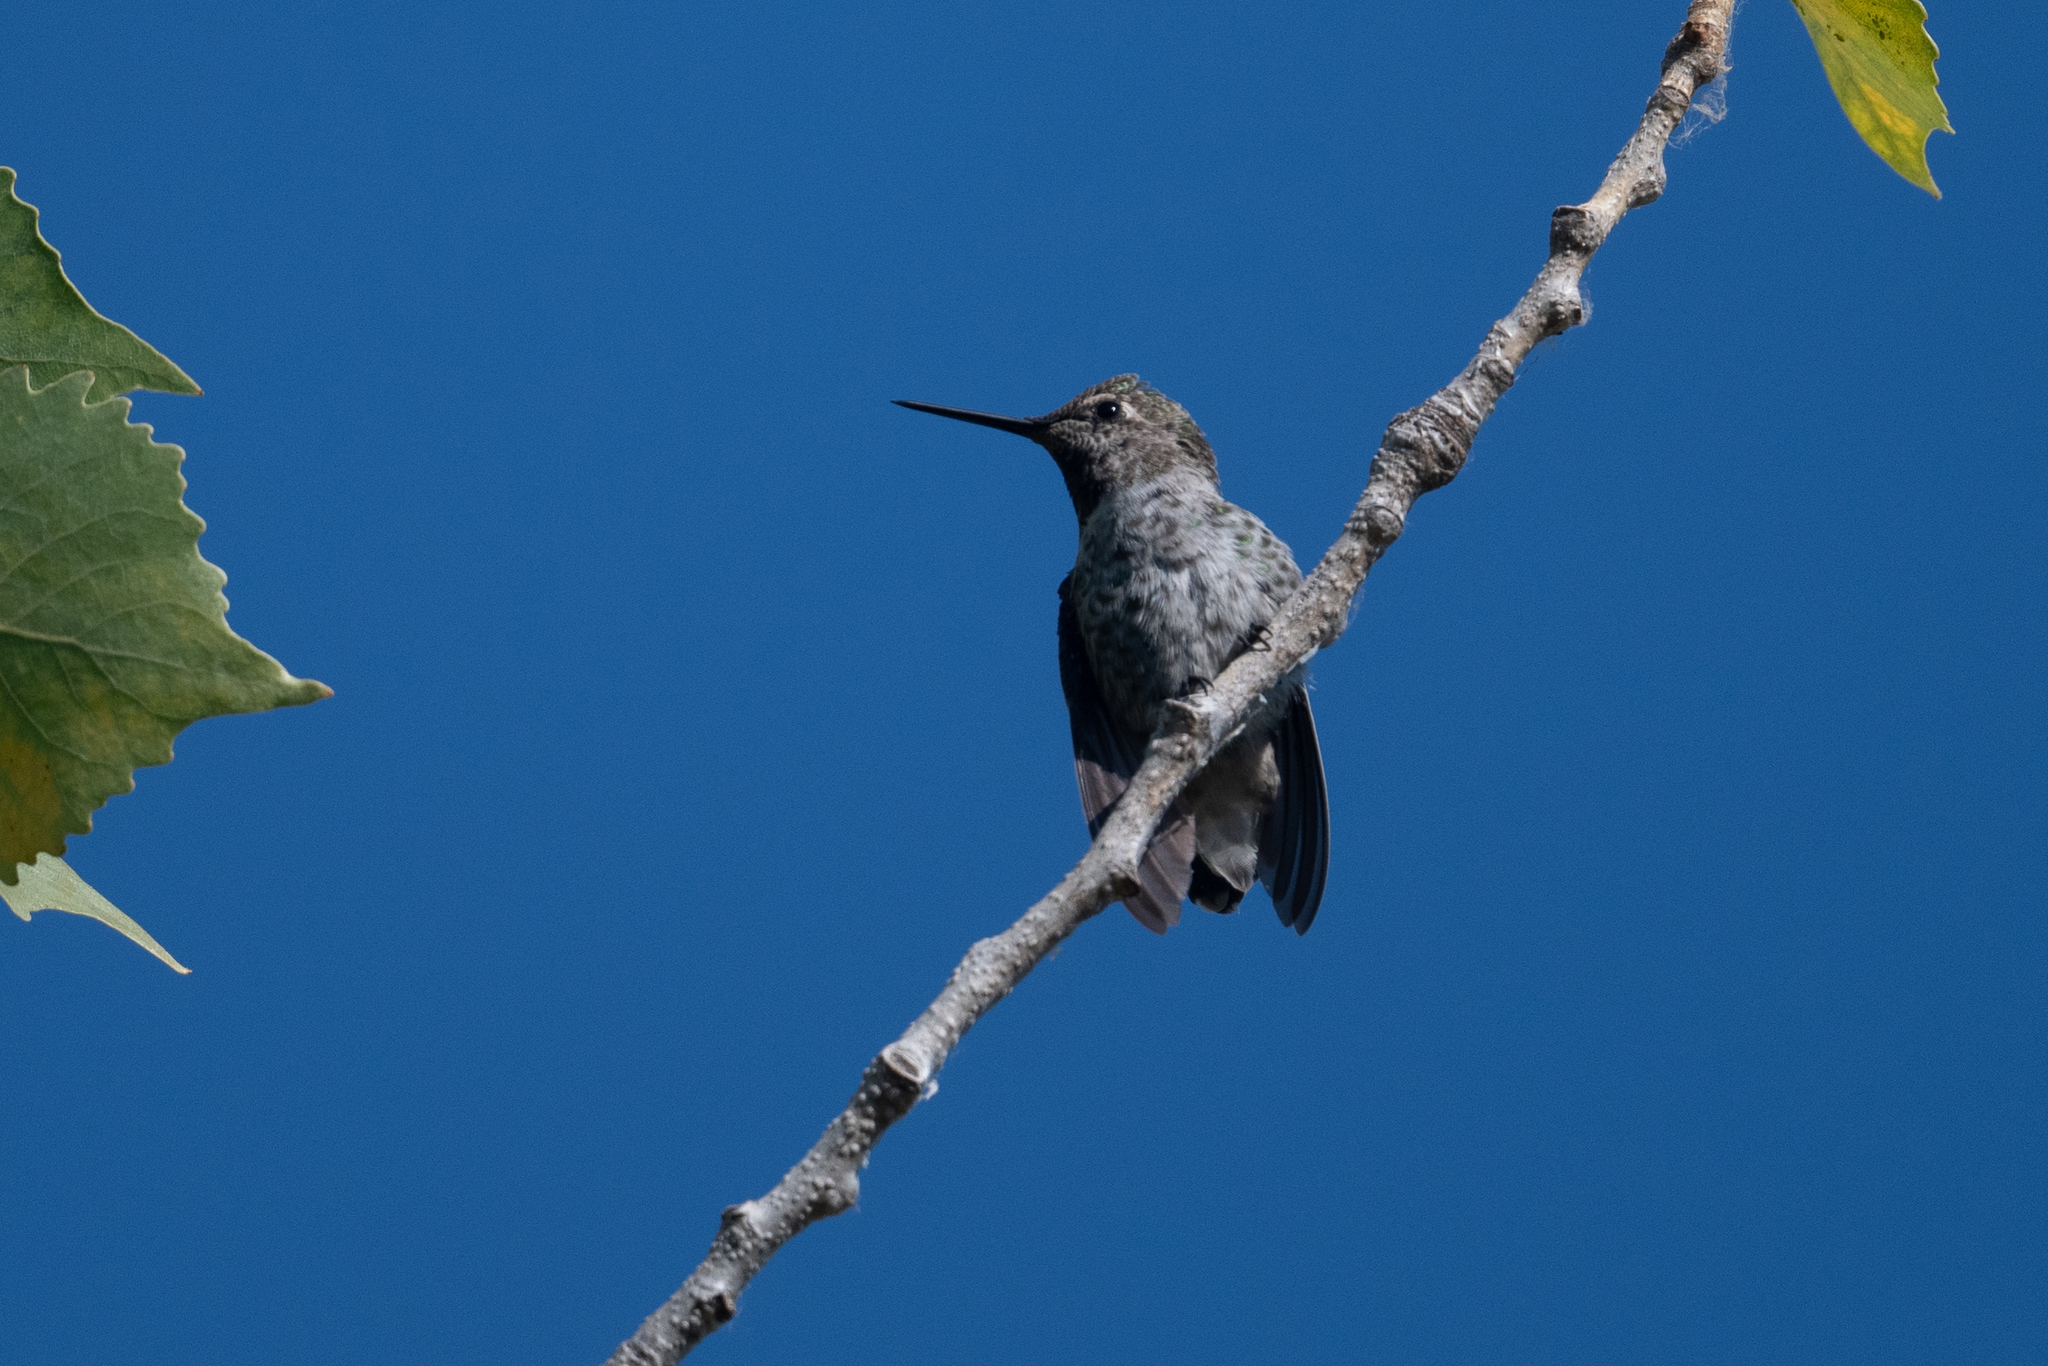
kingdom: Animalia
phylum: Chordata
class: Aves
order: Apodiformes
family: Trochilidae
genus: Calypte
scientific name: Calypte anna
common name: Anna's hummingbird
